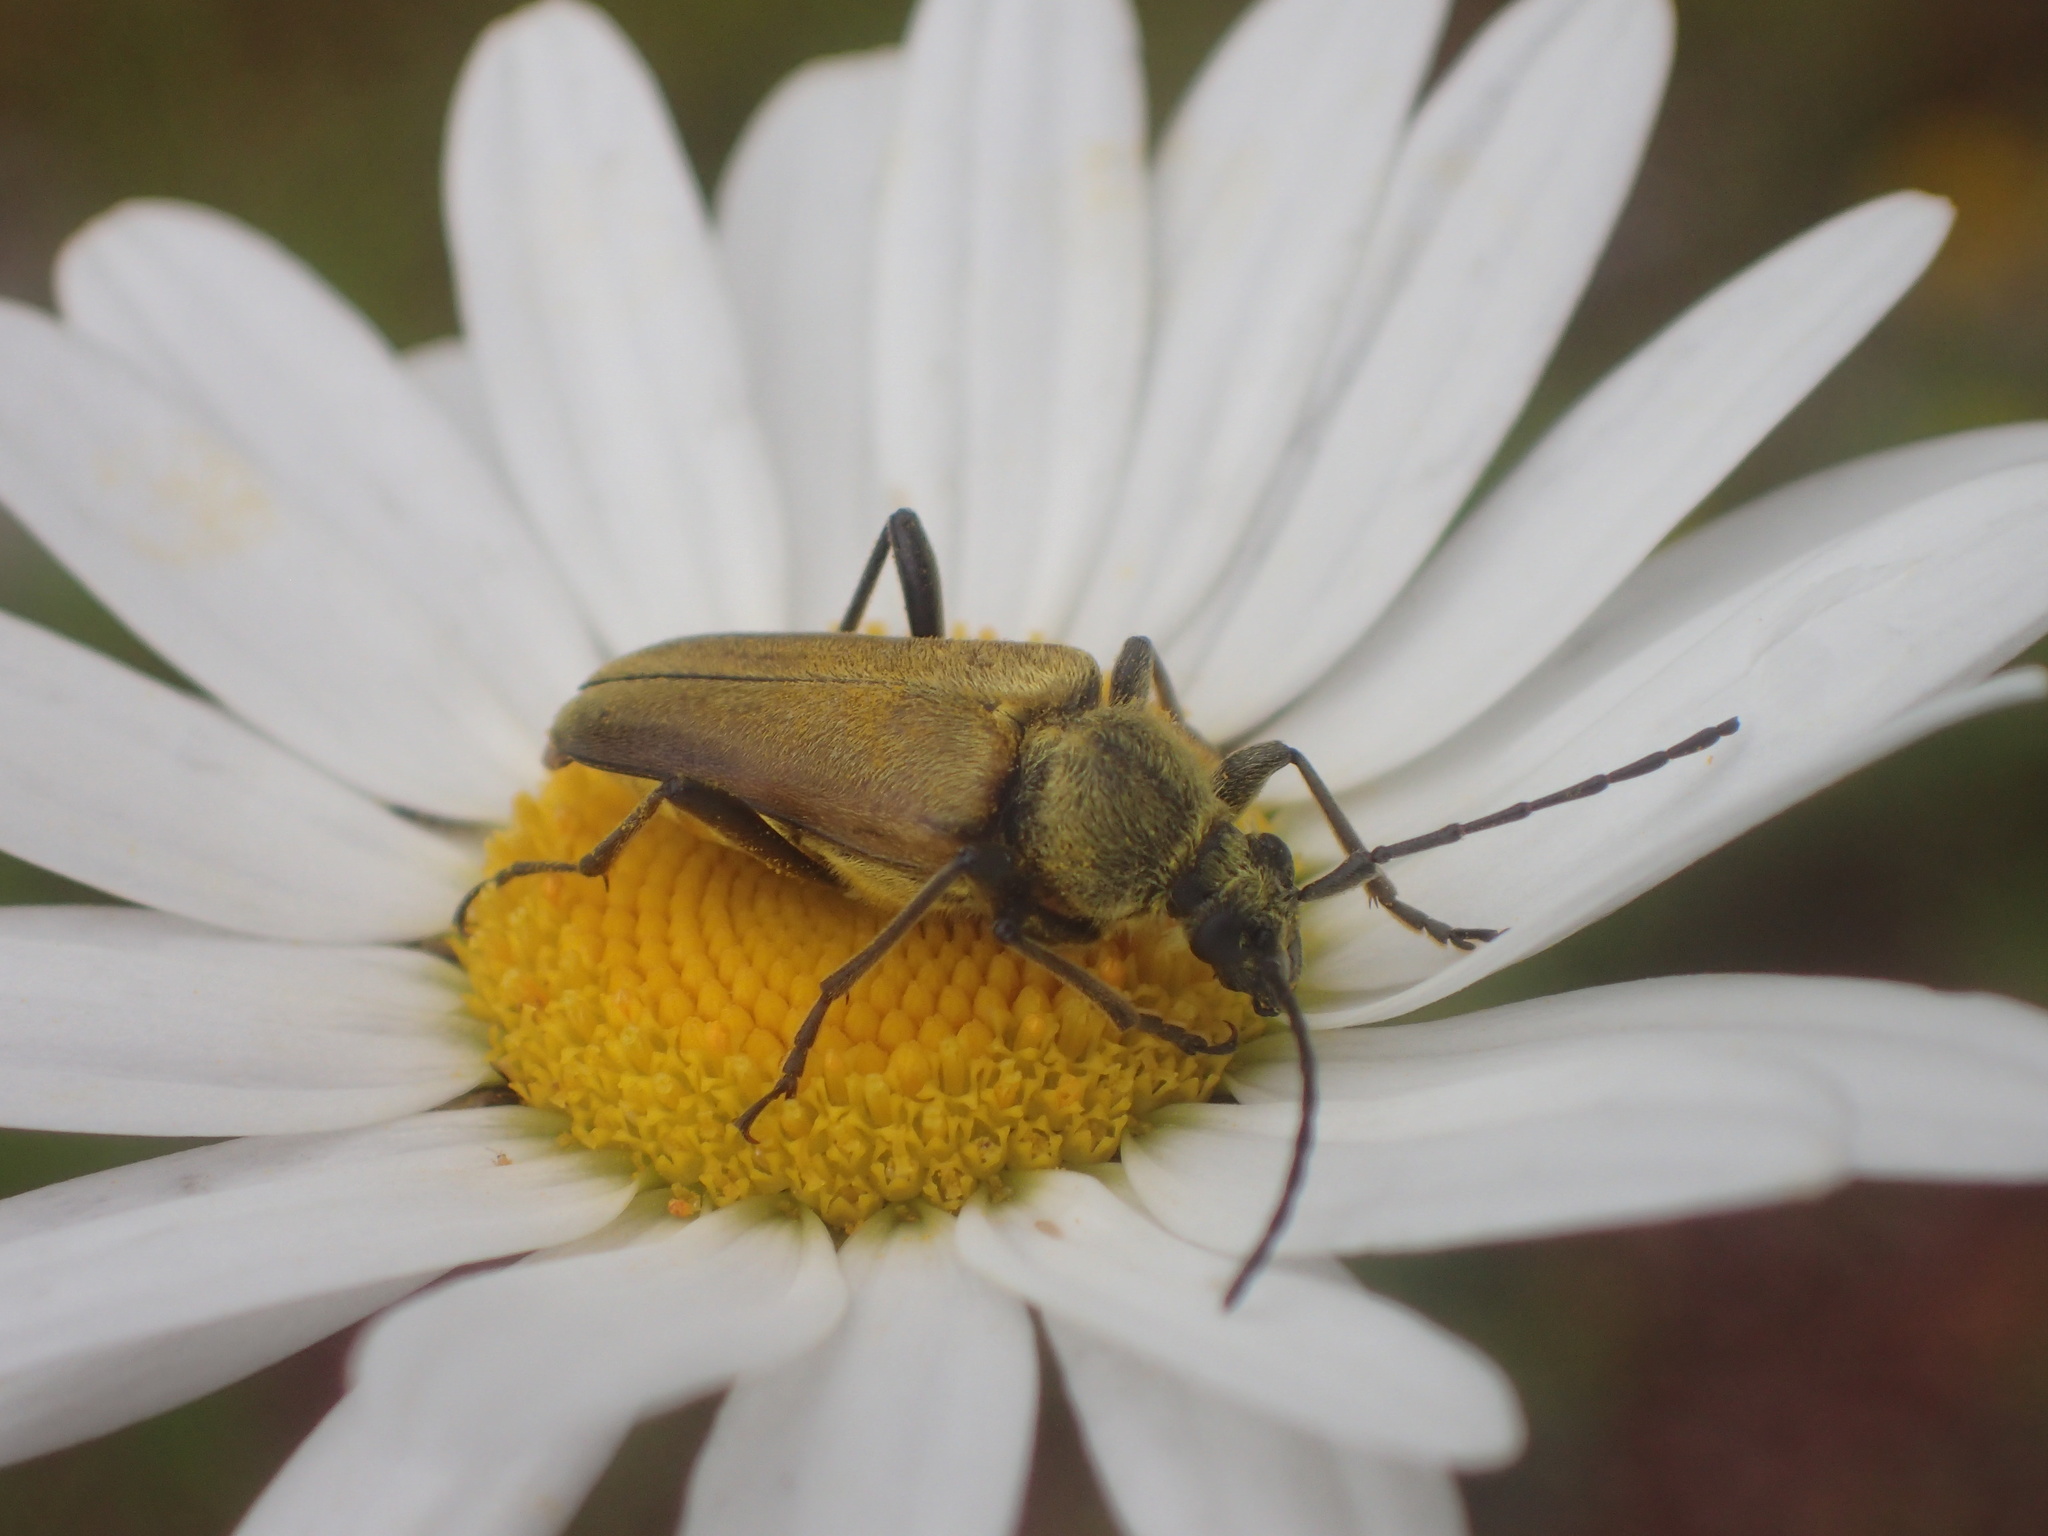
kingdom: Animalia
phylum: Arthropoda
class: Insecta
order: Coleoptera
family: Cerambycidae
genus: Cosmosalia
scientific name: Cosmosalia chrysocoma
